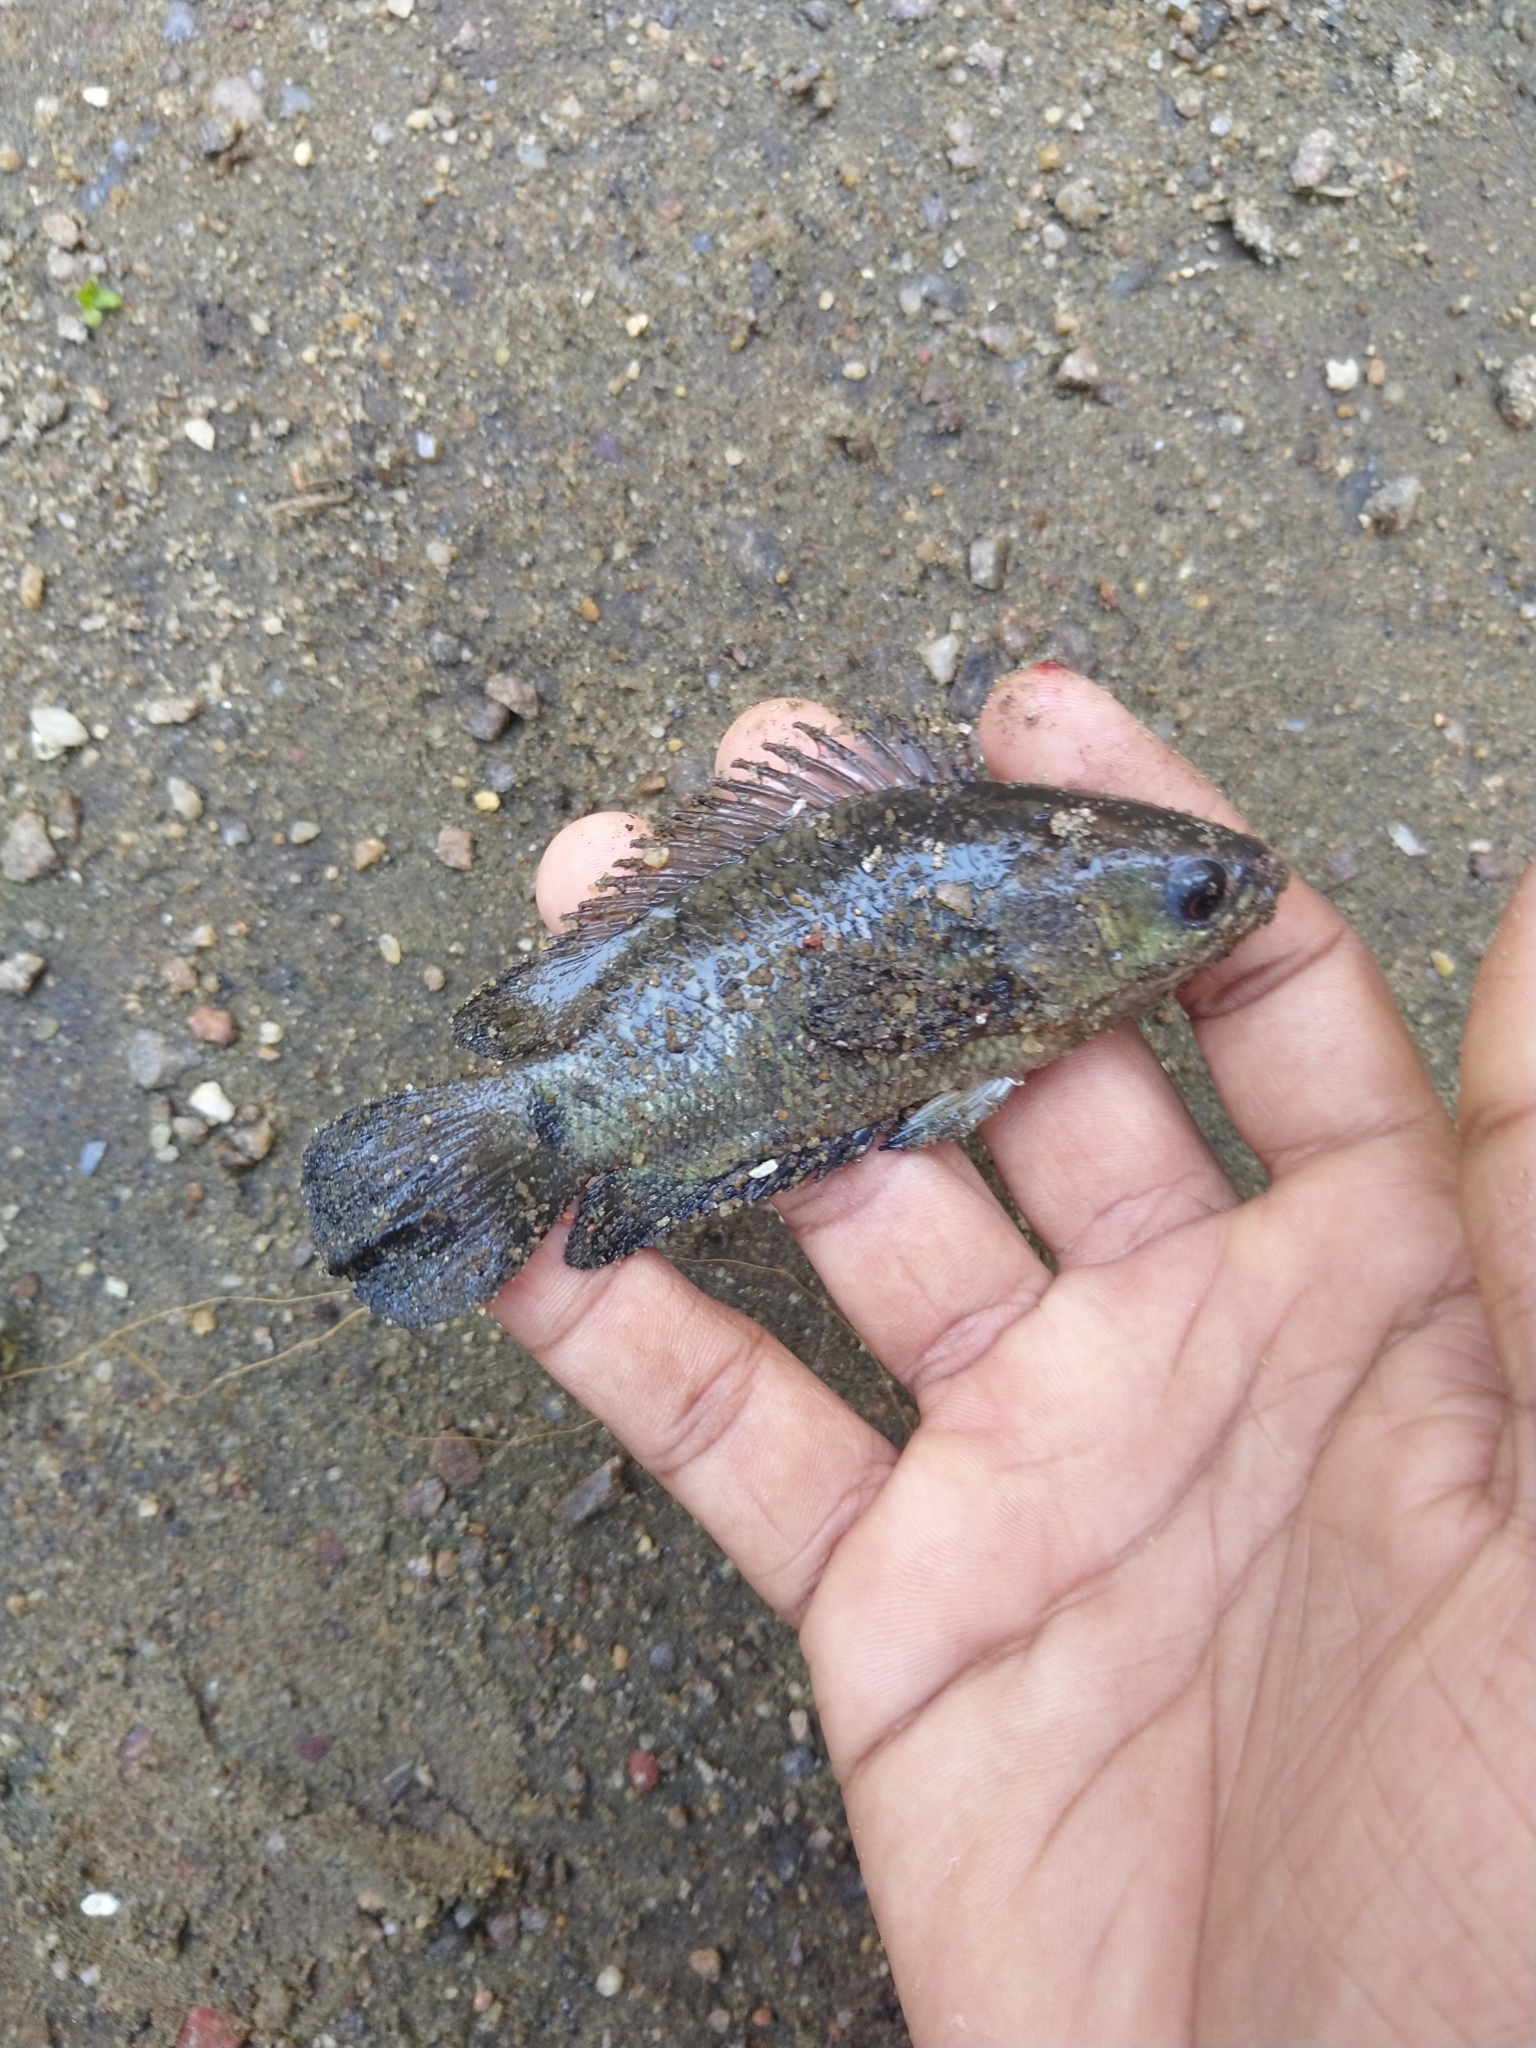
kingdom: Animalia
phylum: Chordata
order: Perciformes
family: Anabantidae
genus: Anabas
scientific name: Anabas testudineus
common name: Climbing perch
